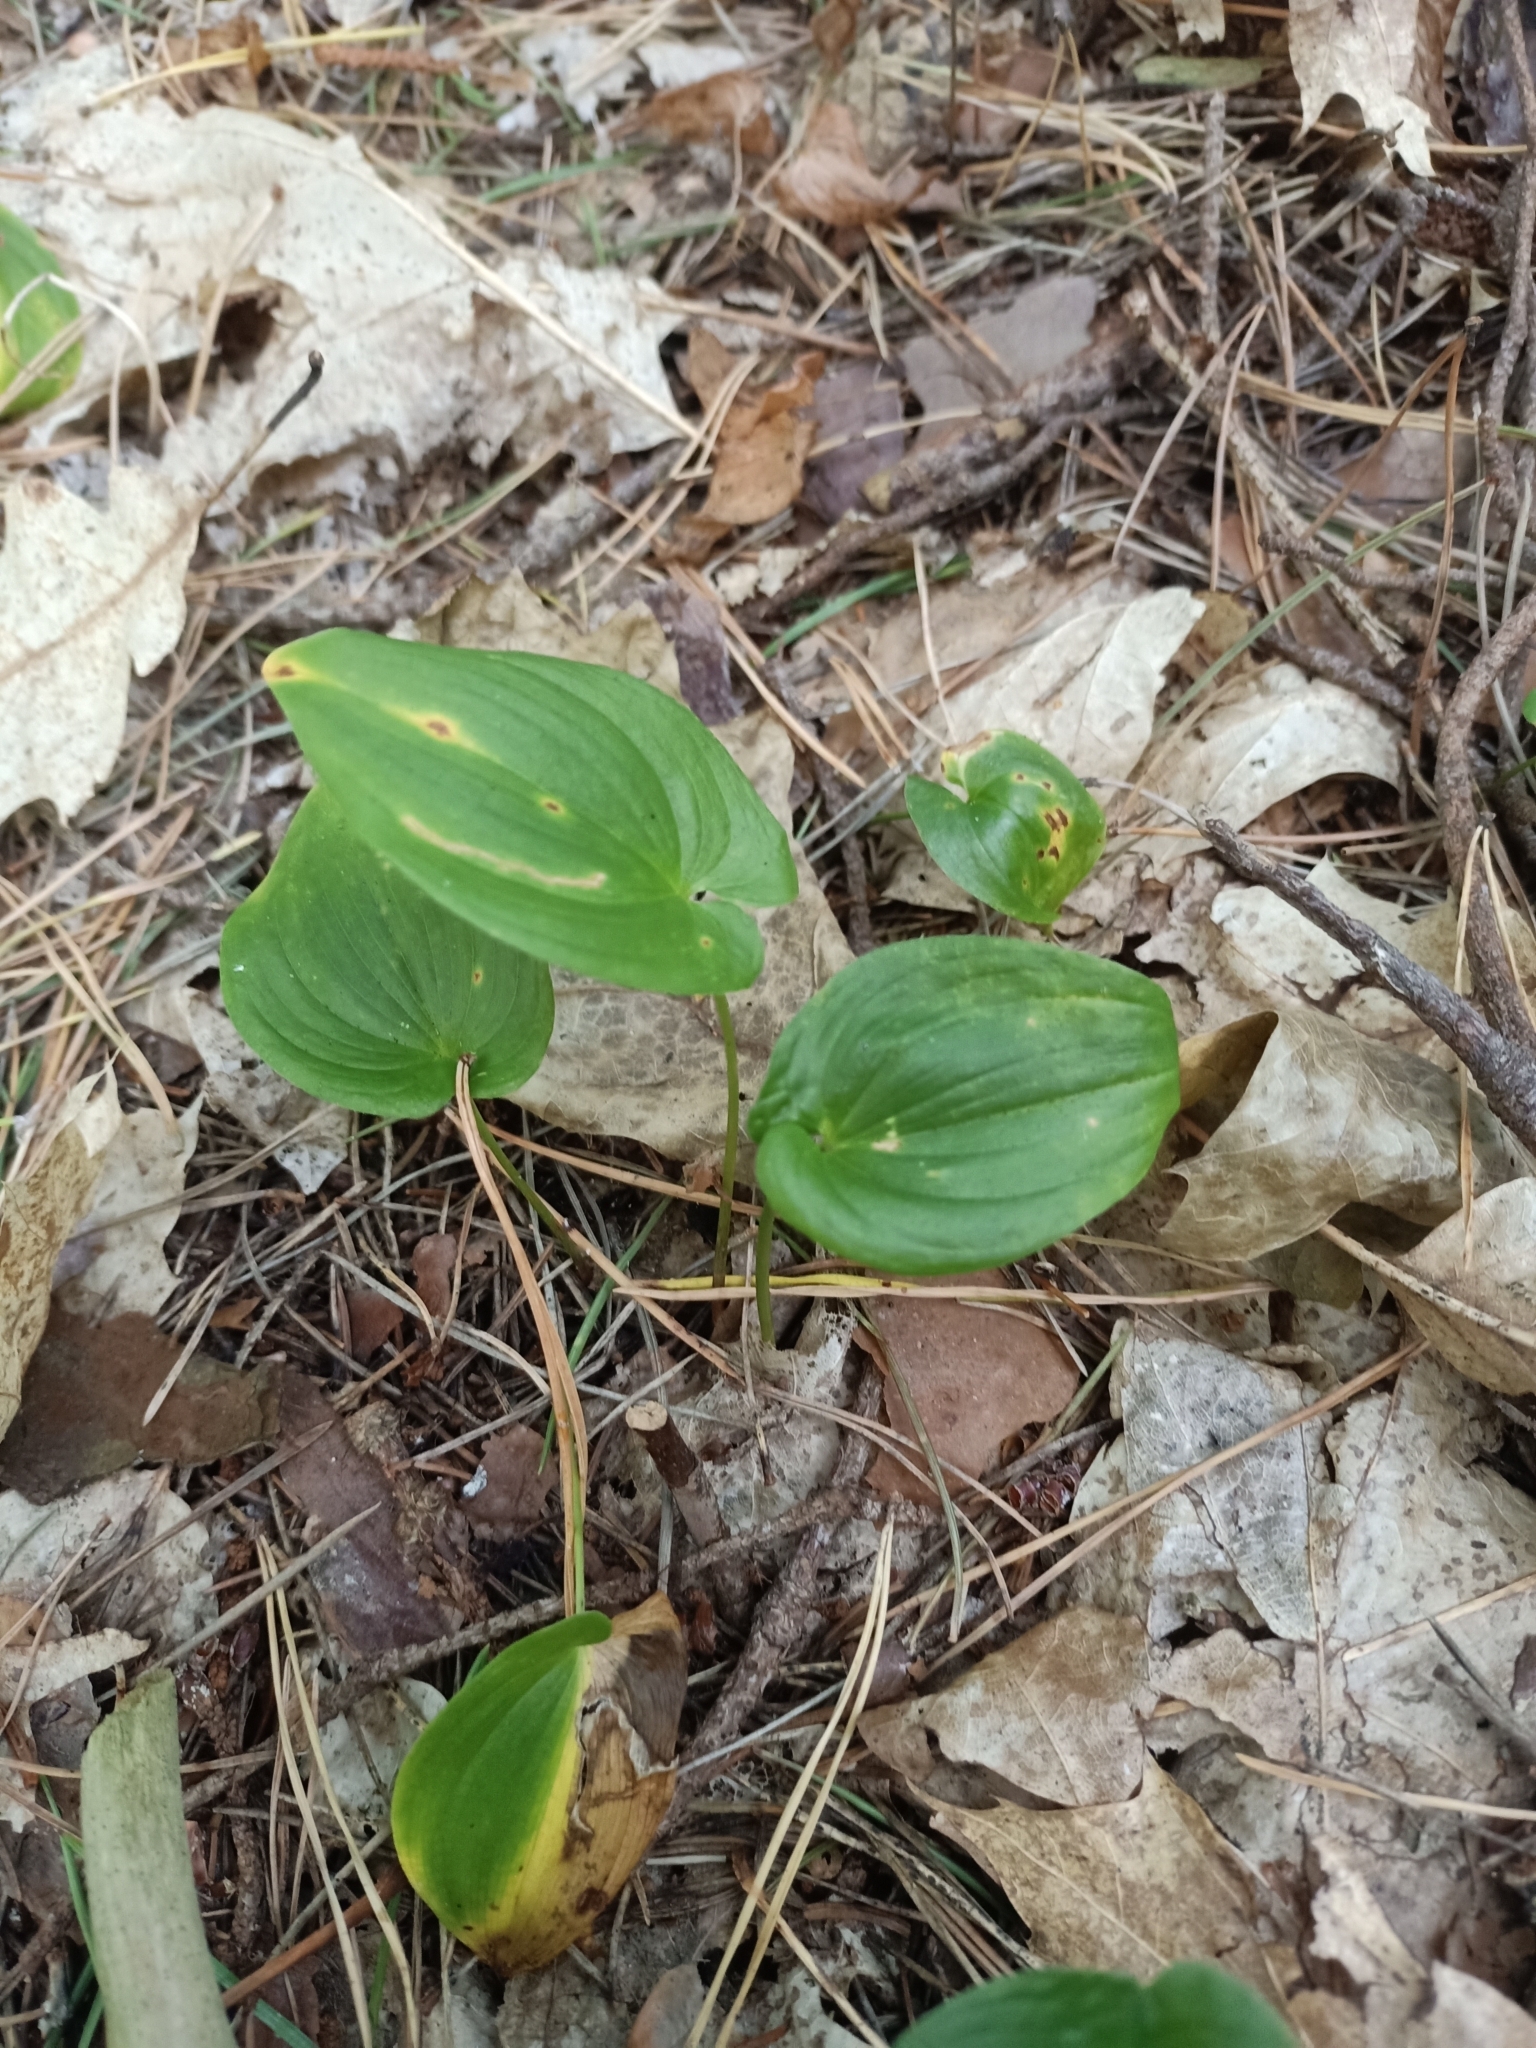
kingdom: Plantae
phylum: Tracheophyta
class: Liliopsida
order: Asparagales
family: Asparagaceae
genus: Maianthemum
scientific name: Maianthemum bifolium
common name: May lily
